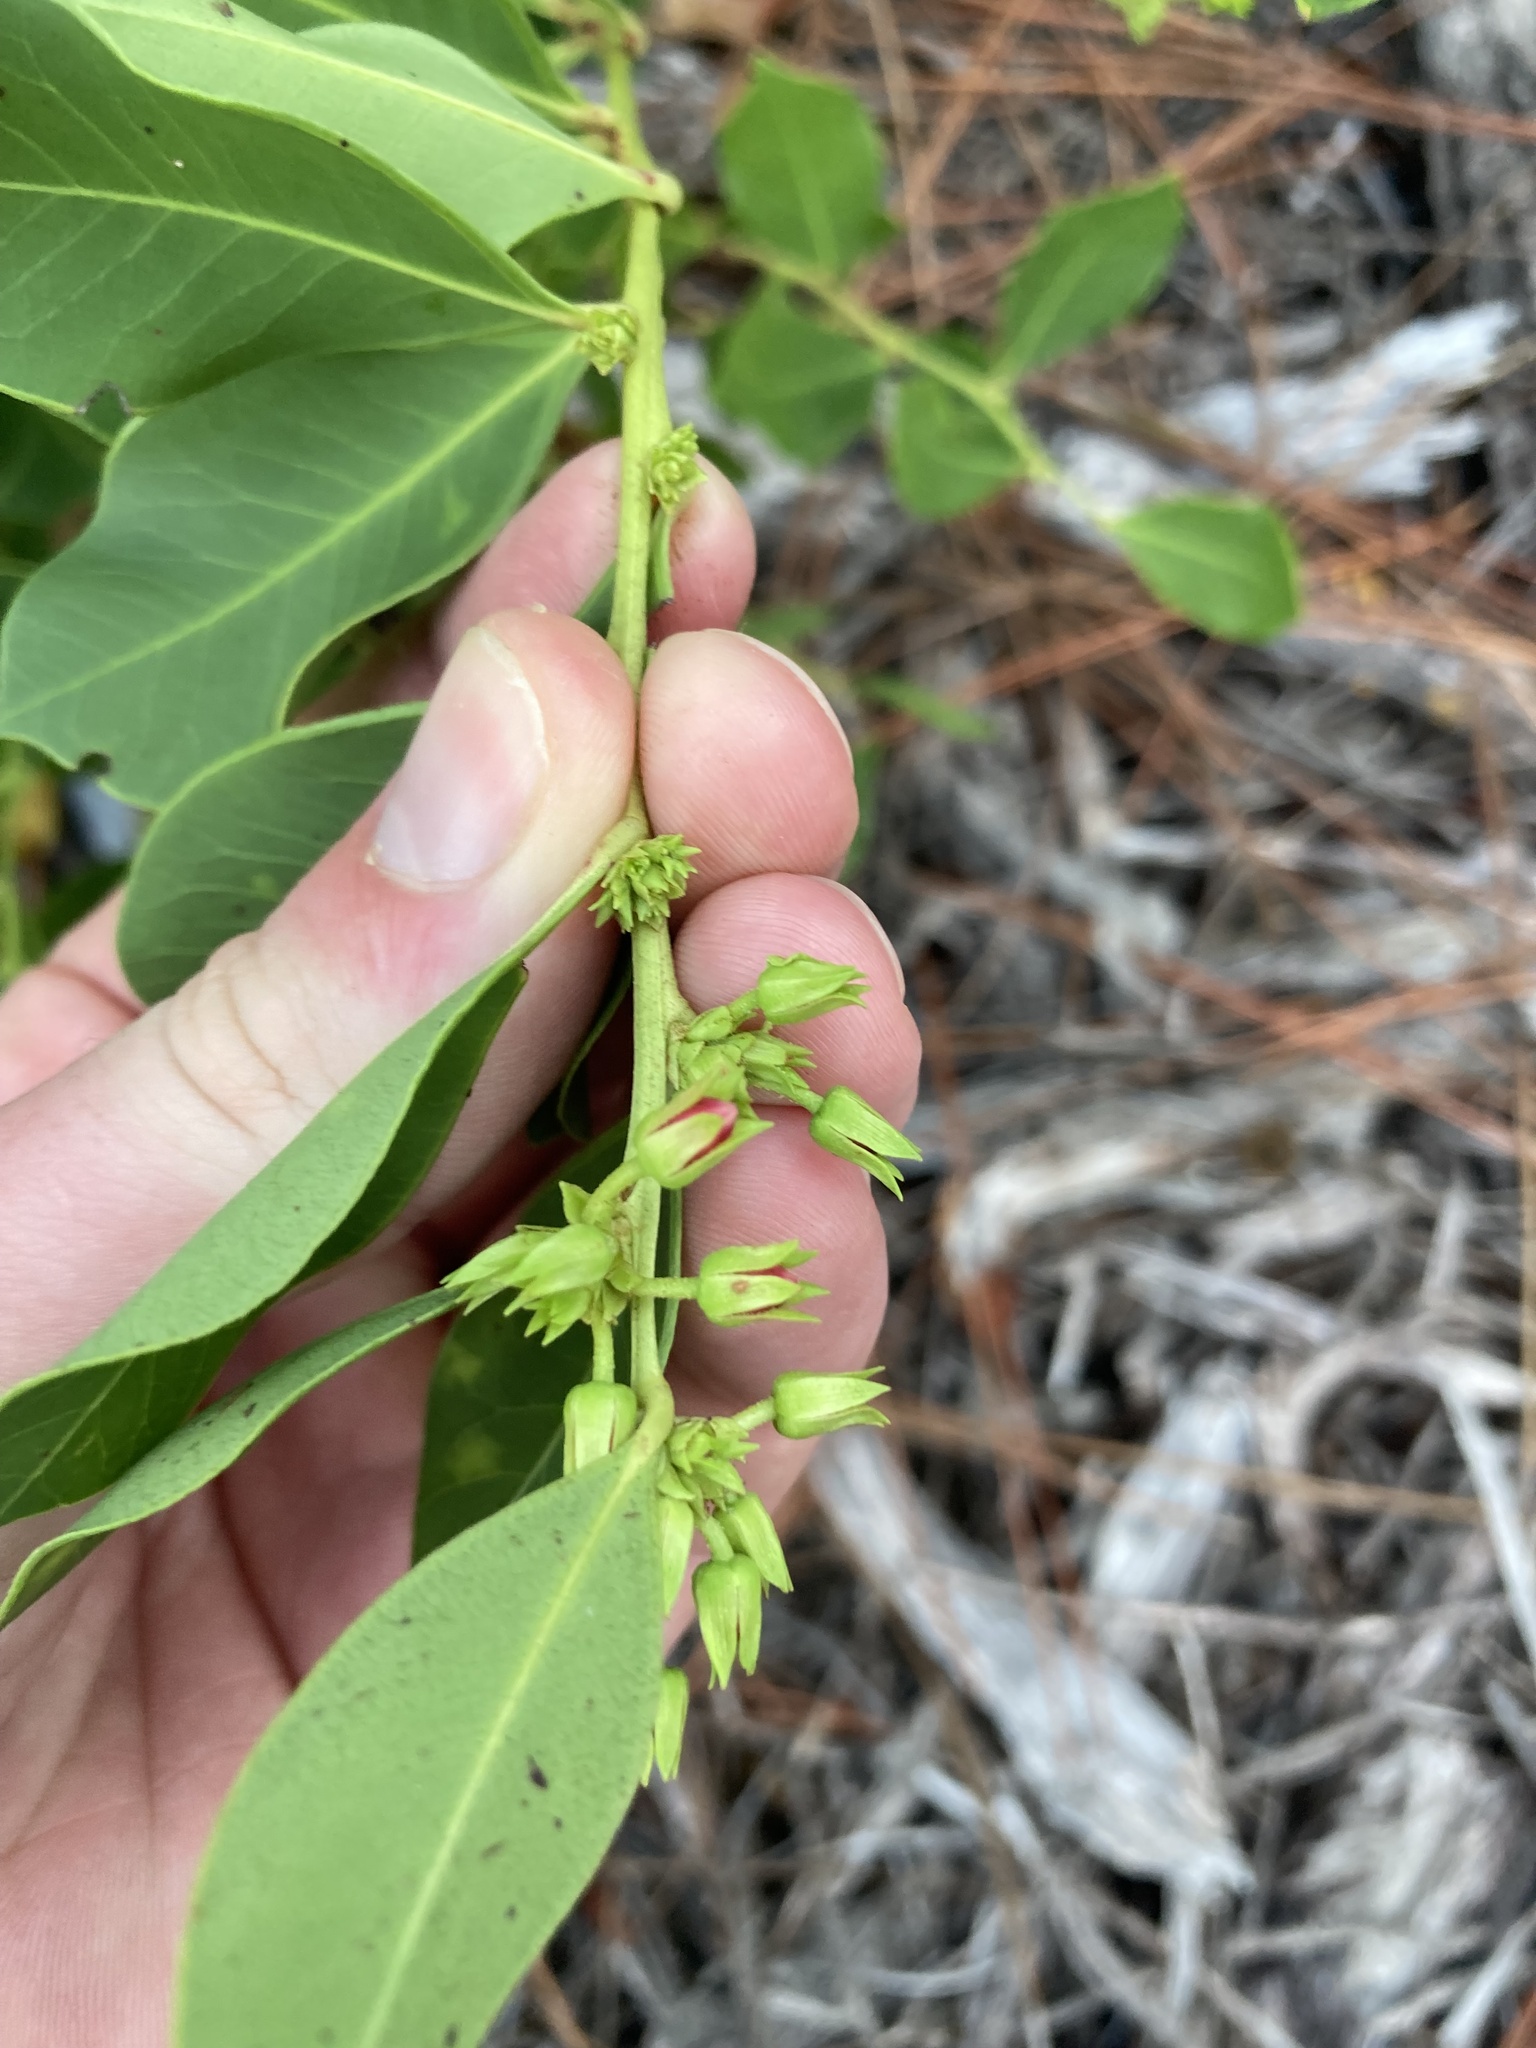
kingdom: Plantae
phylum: Tracheophyta
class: Magnoliopsida
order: Ericales
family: Ericaceae
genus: Lyonia
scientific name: Lyonia lucida
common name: Fetterbush
